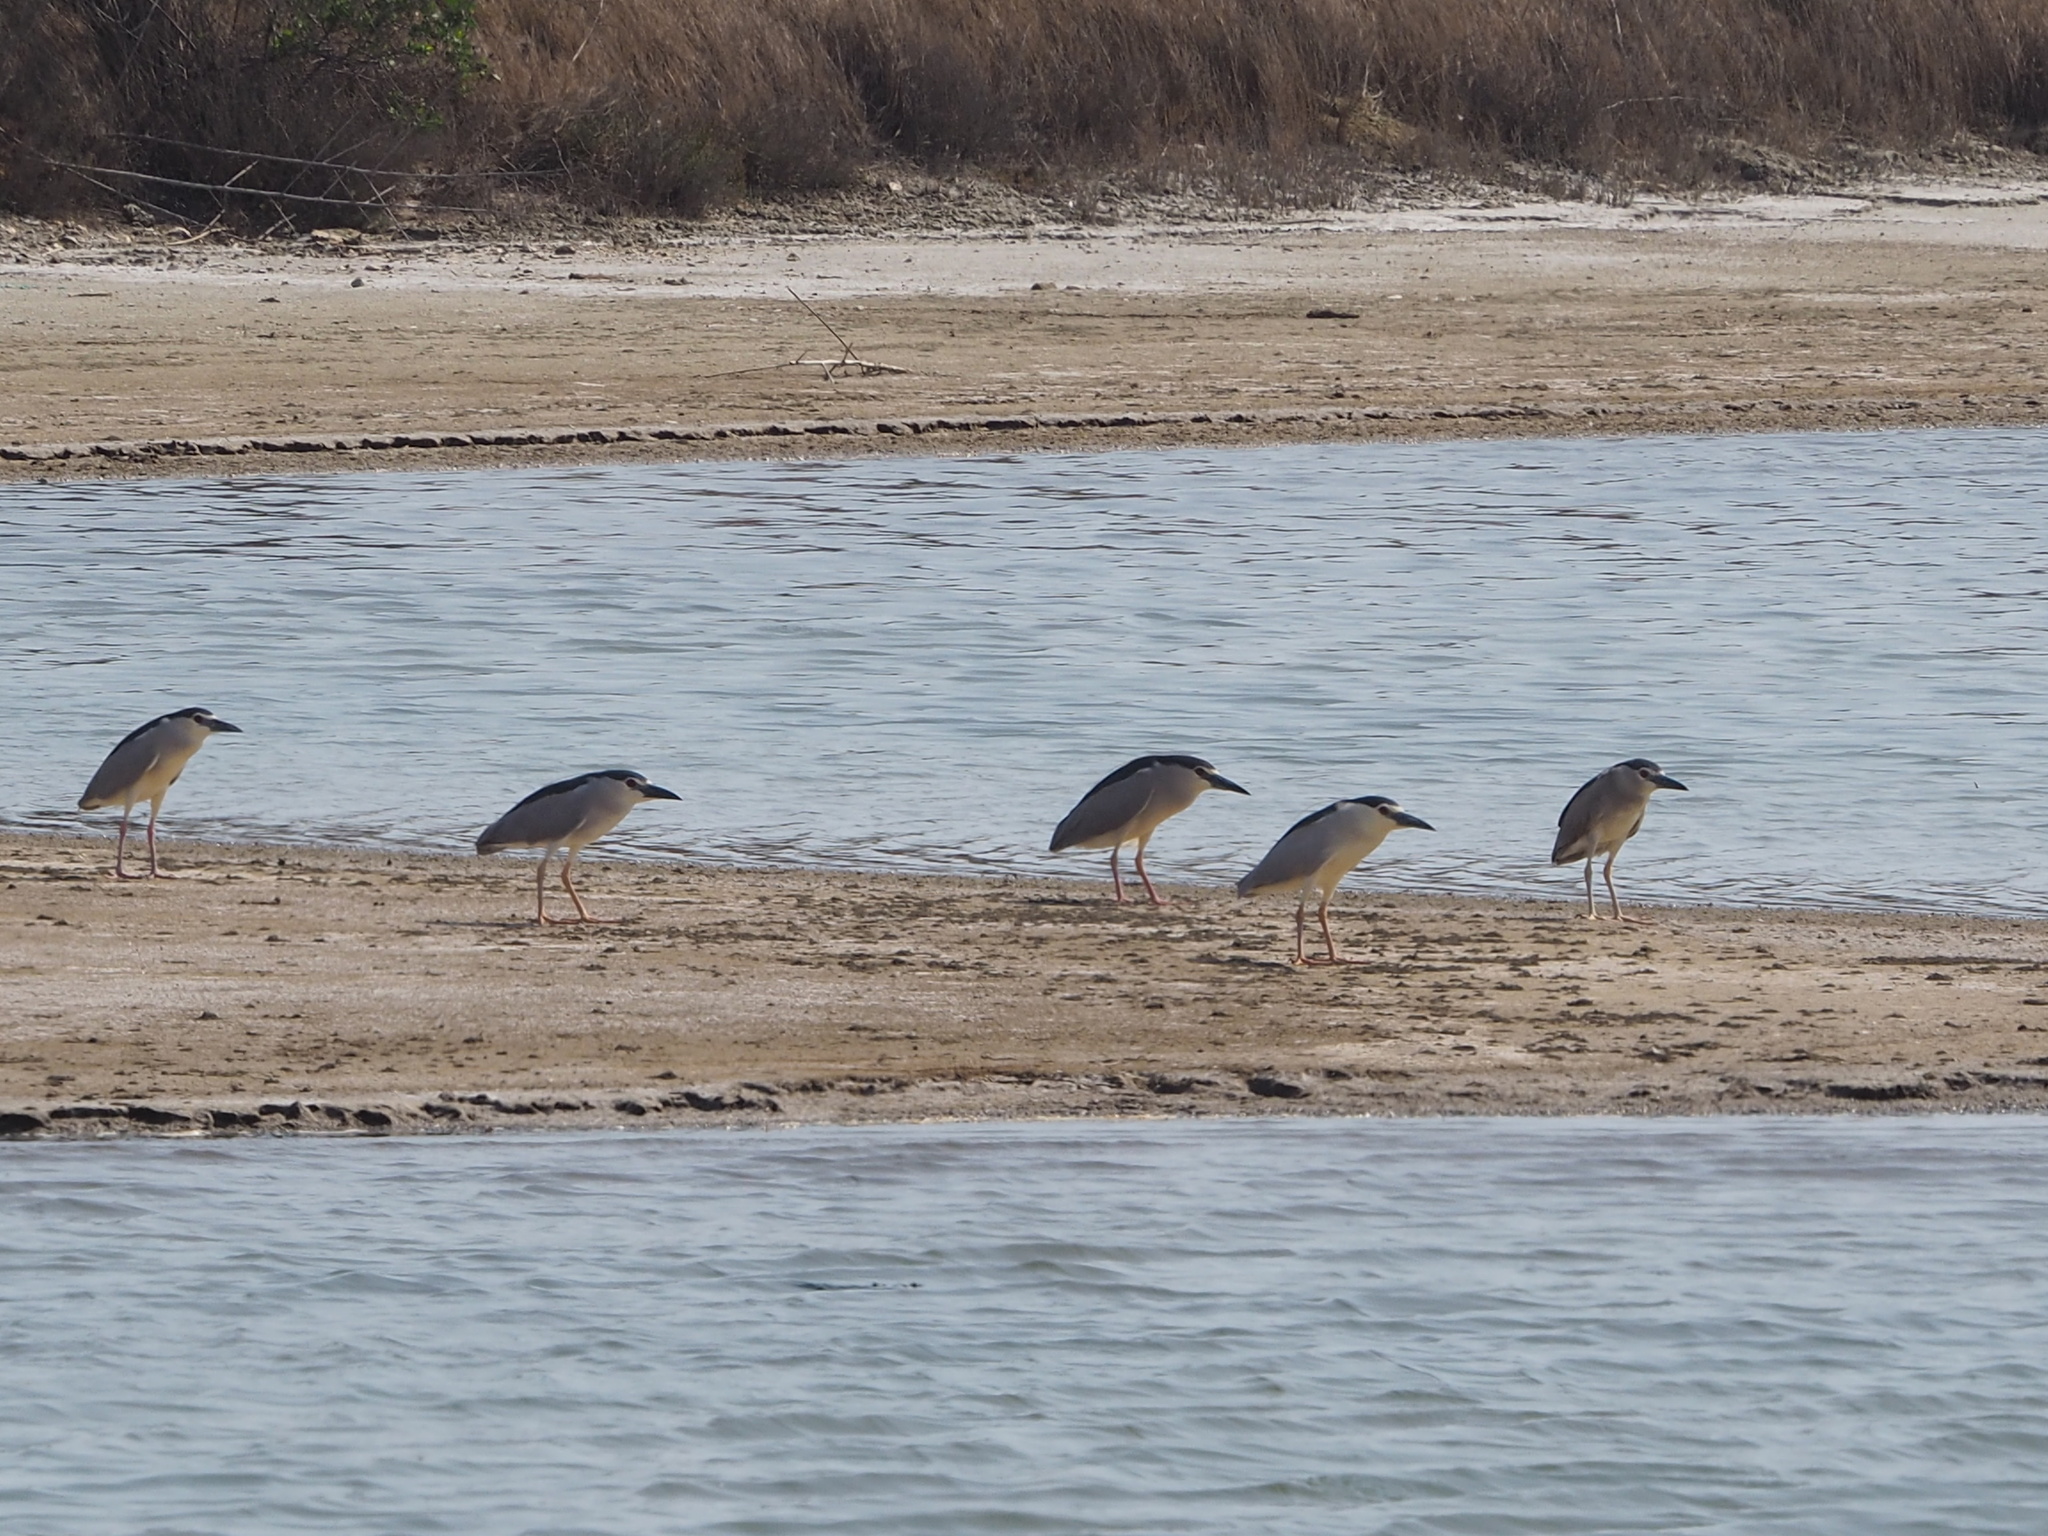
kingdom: Animalia
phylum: Chordata
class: Aves
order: Pelecaniformes
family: Ardeidae
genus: Nycticorax
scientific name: Nycticorax nycticorax
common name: Black-crowned night heron
